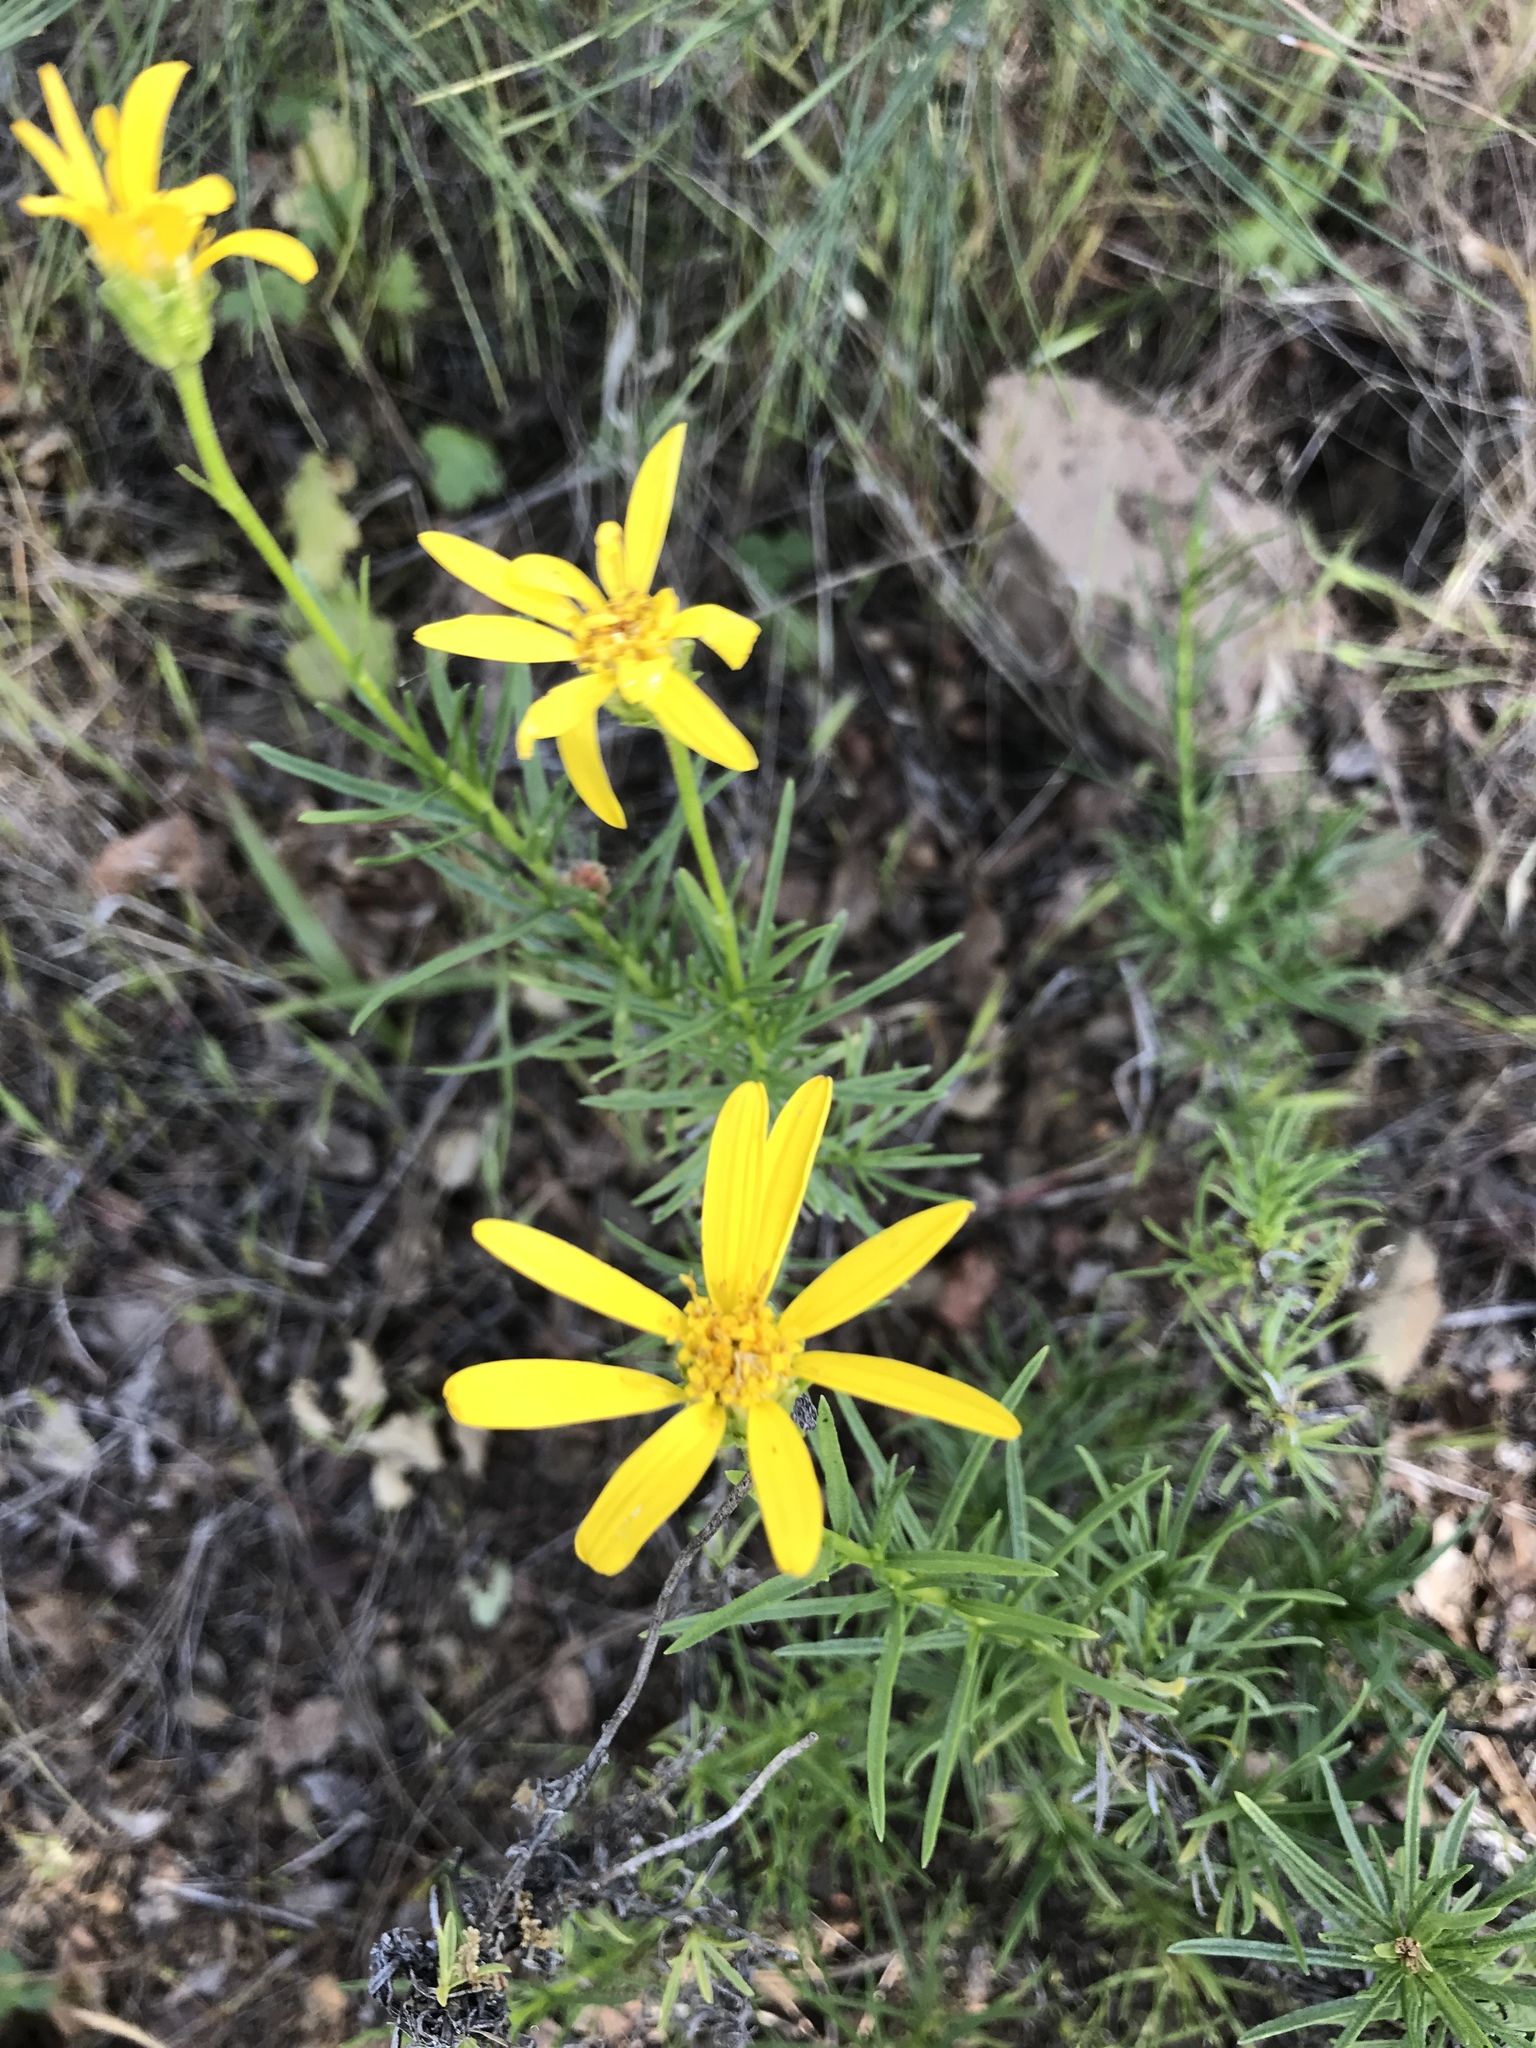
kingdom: Plantae
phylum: Tracheophyta
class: Magnoliopsida
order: Asterales
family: Asteraceae
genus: Ericameria
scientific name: Ericameria linearifolia
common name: Interior goldenbush
